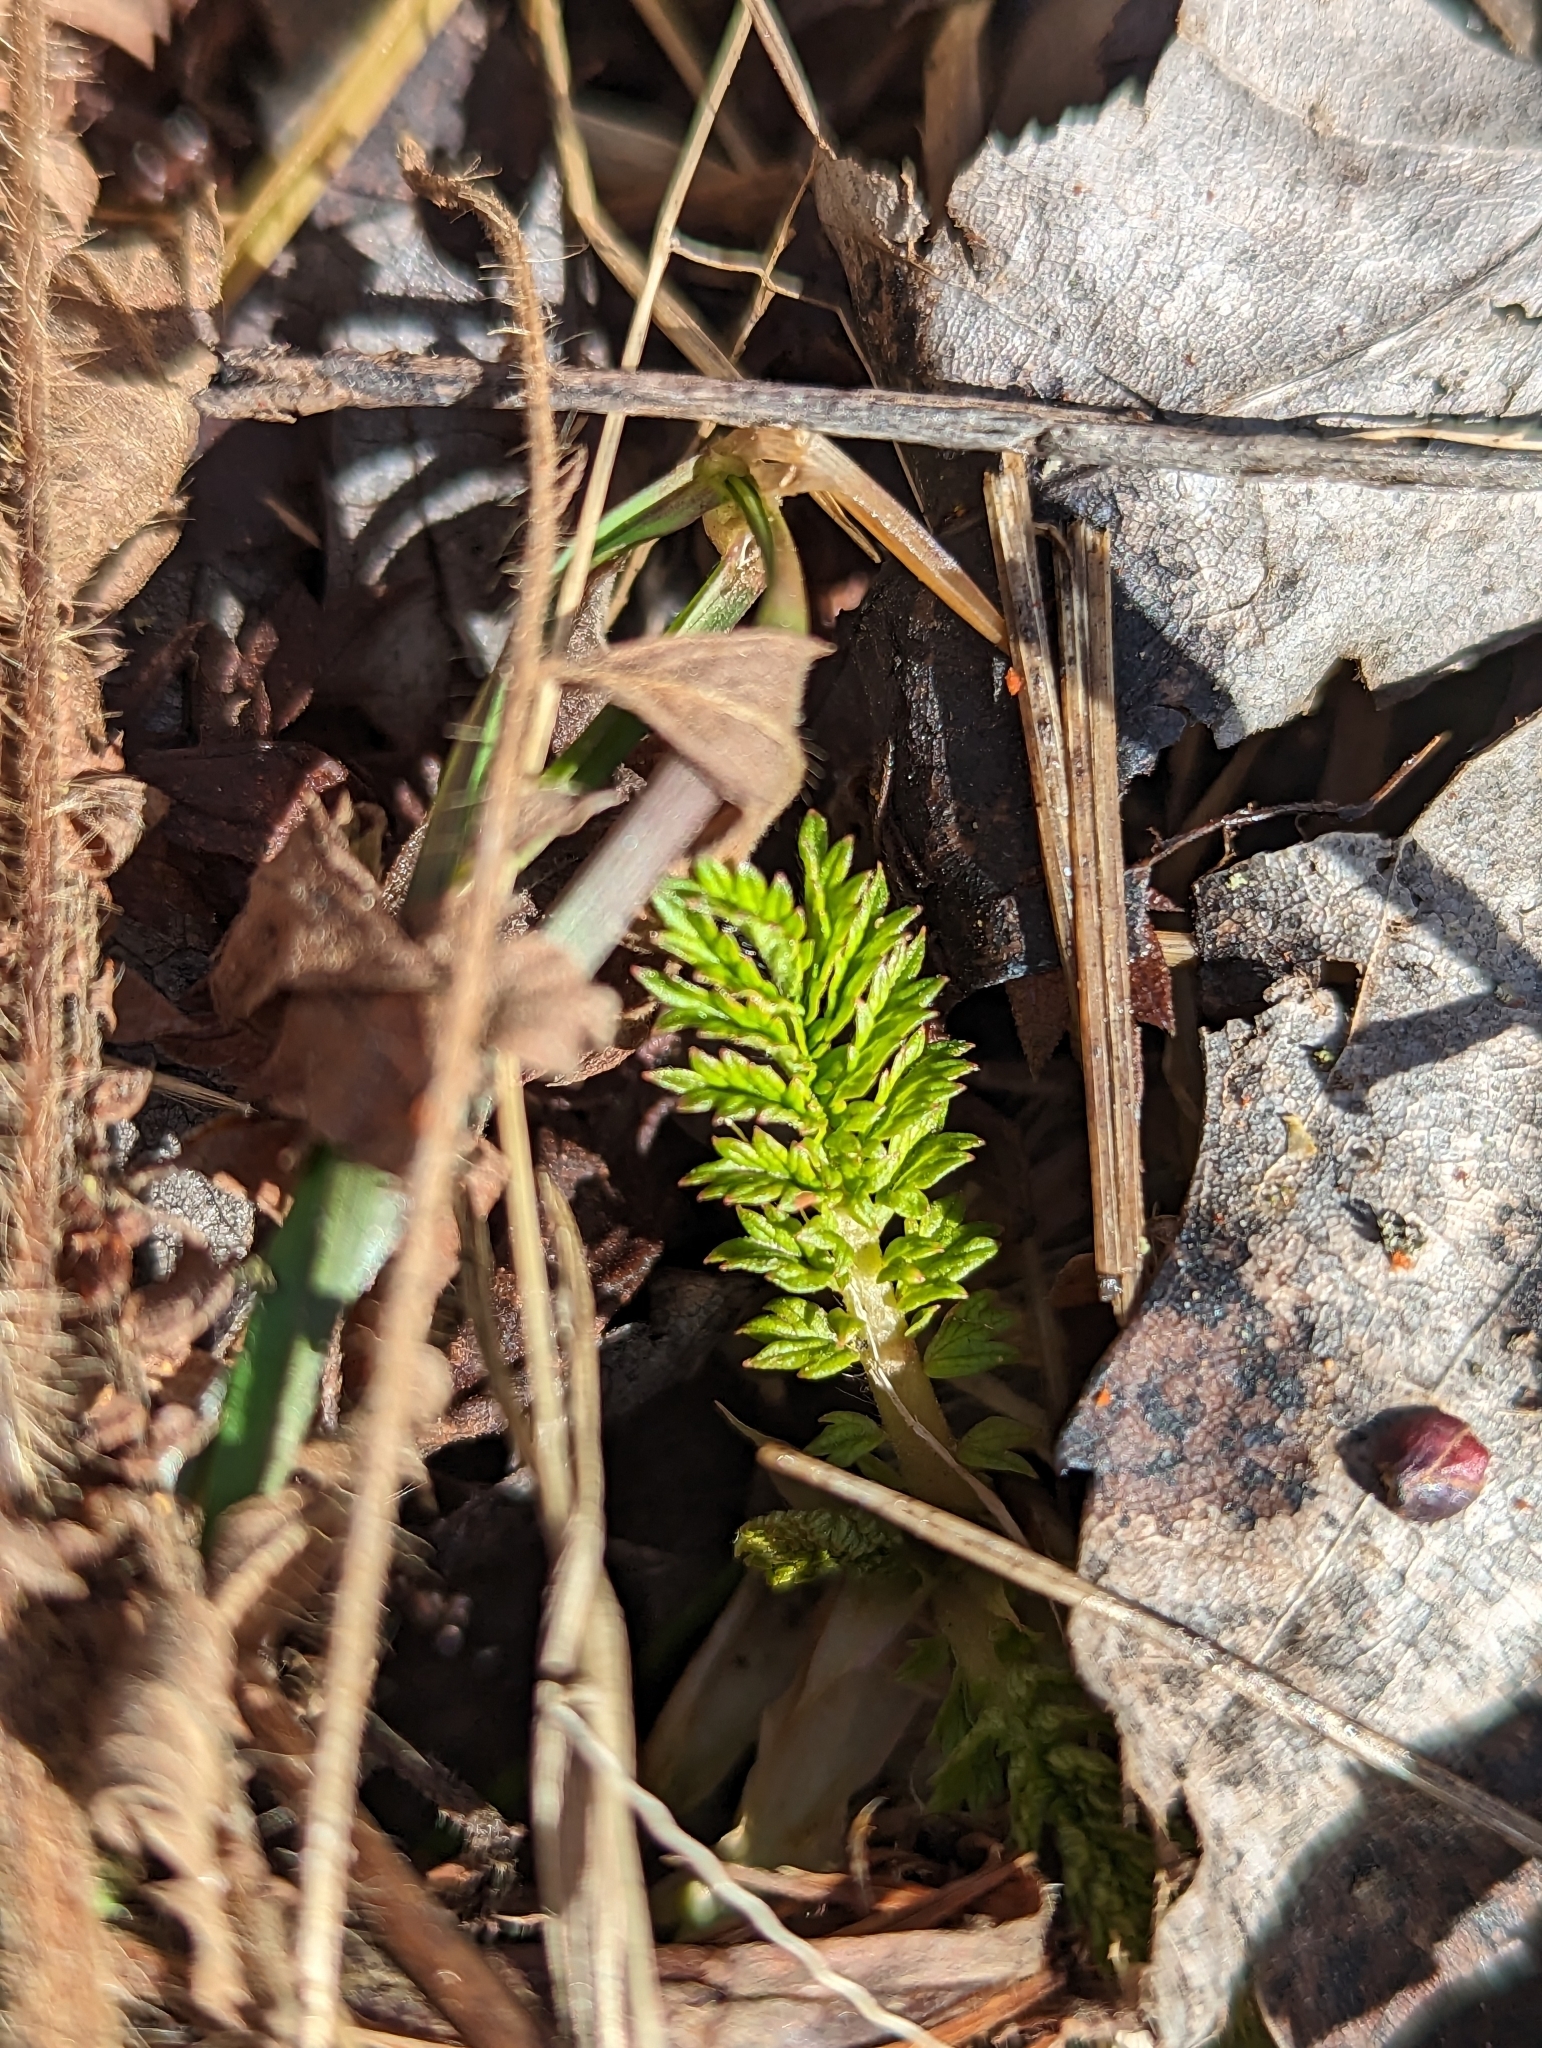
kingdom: Plantae
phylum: Tracheophyta
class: Magnoliopsida
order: Rosales
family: Rosaceae
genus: Agrimonia
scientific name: Agrimonia parviflora
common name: Harvest-lice
